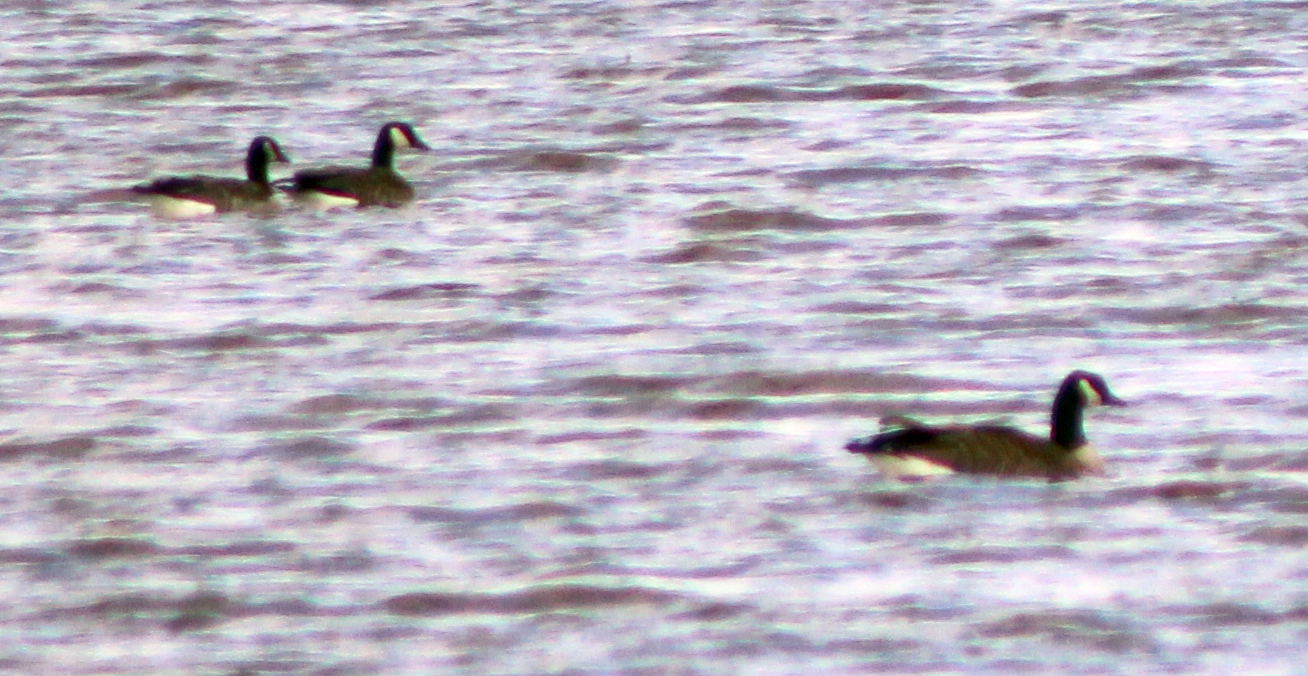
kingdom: Animalia
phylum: Chordata
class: Aves
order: Anseriformes
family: Anatidae
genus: Branta
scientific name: Branta canadensis
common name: Canada goose
